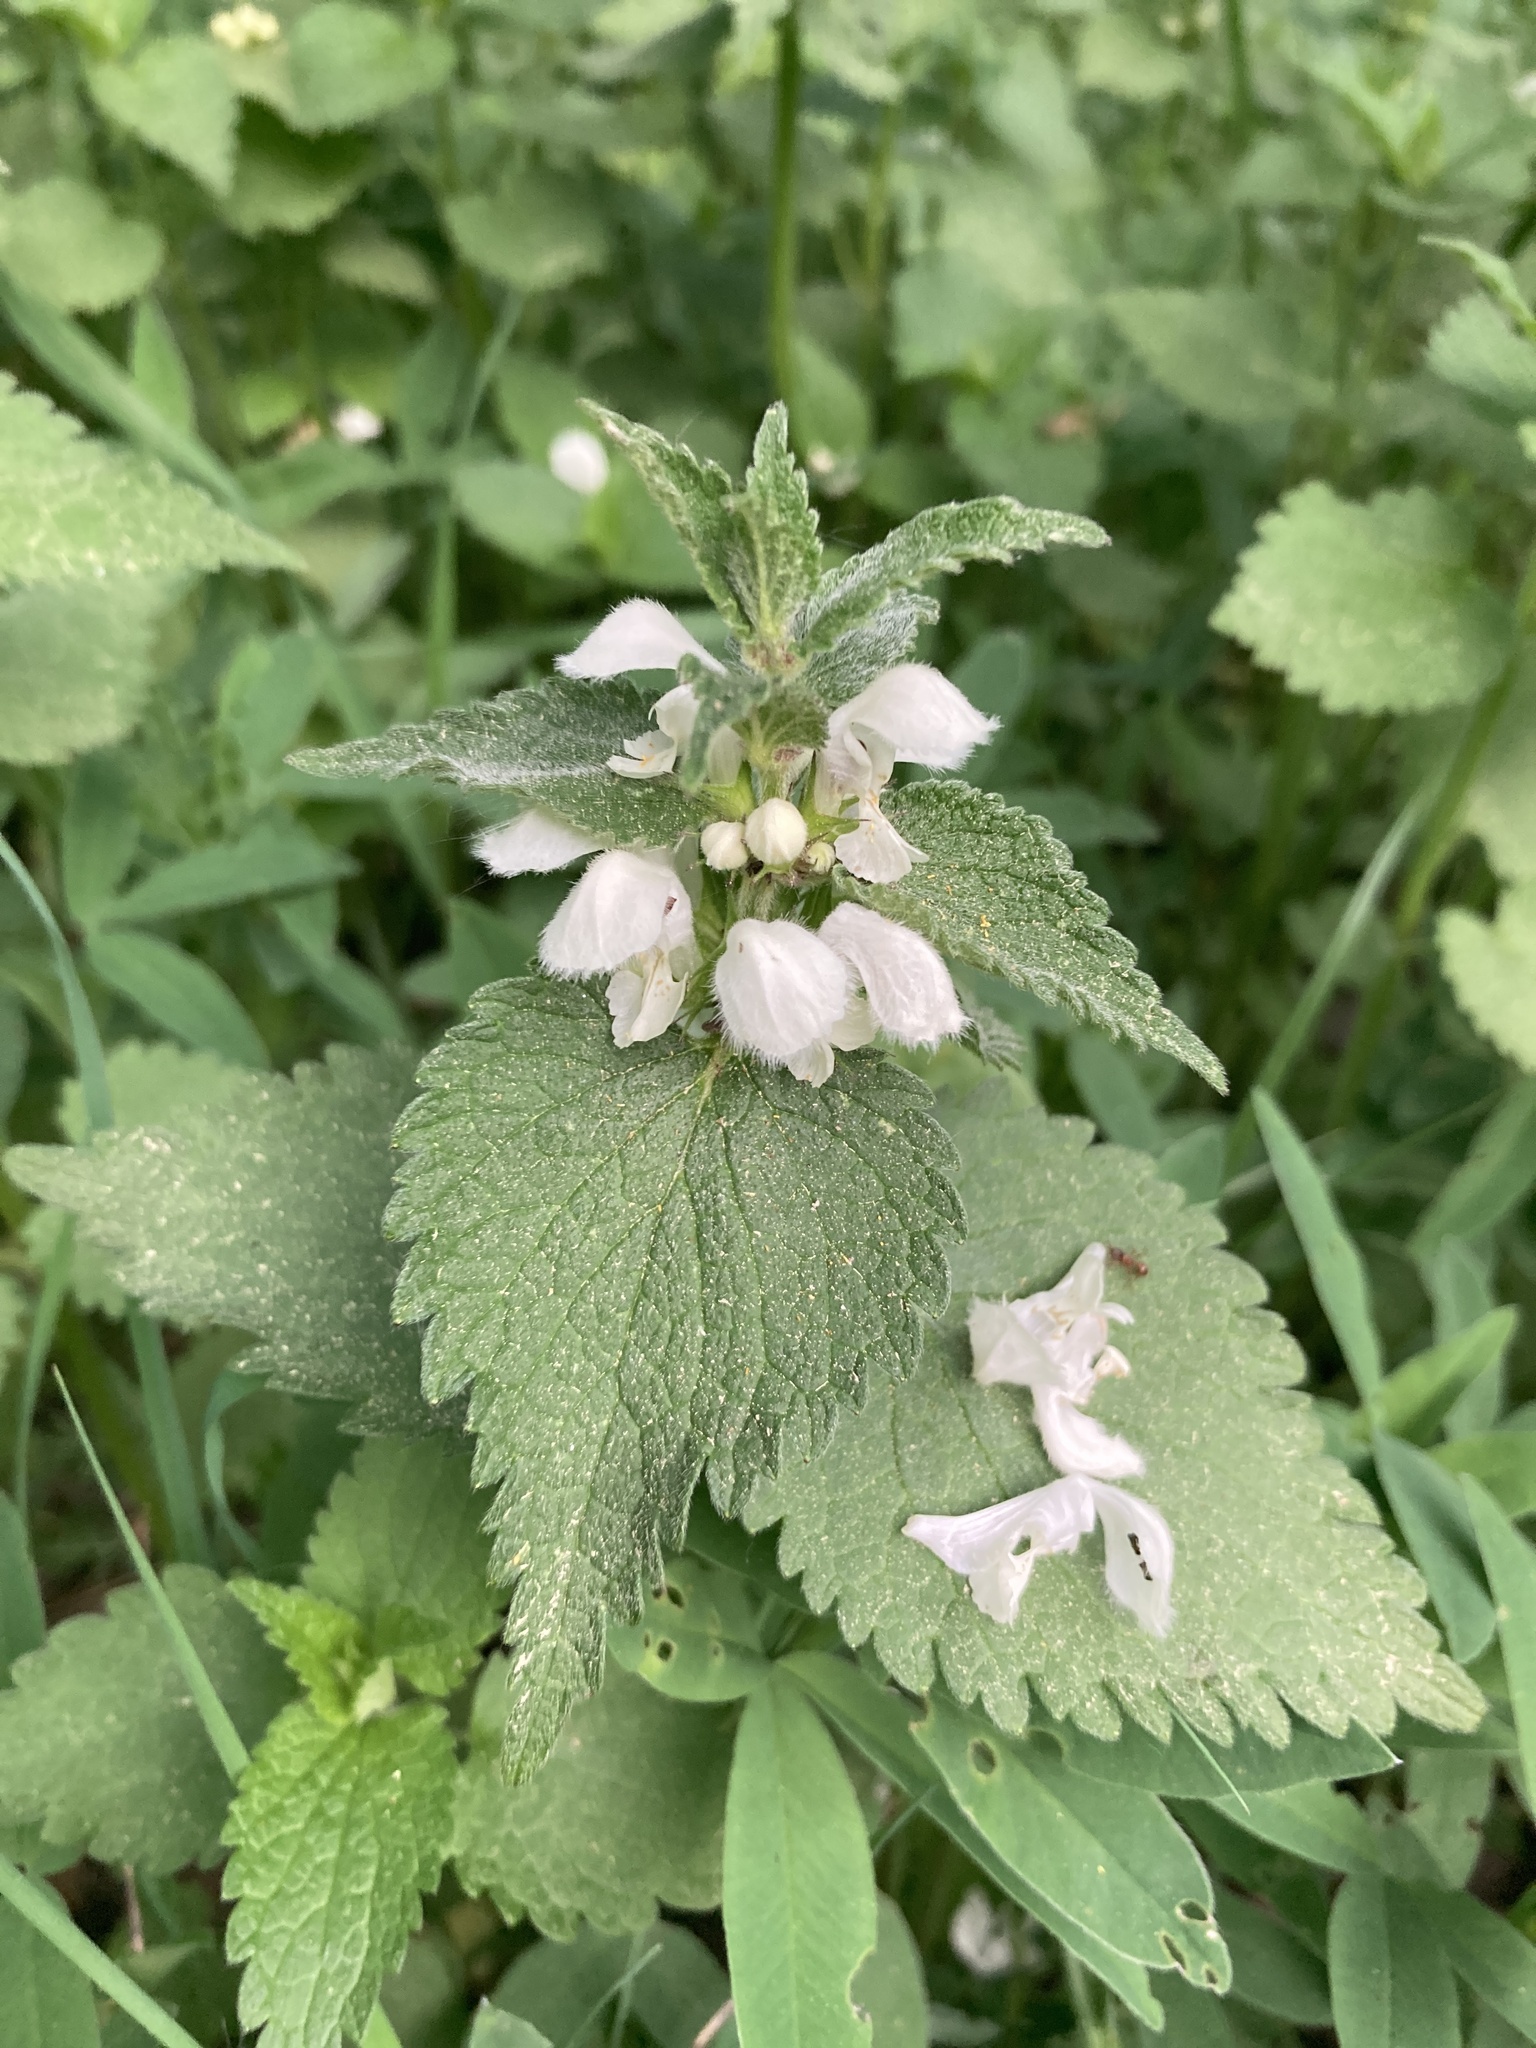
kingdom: Plantae
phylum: Tracheophyta
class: Magnoliopsida
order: Lamiales
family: Lamiaceae
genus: Lamium
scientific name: Lamium album
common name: White dead-nettle
